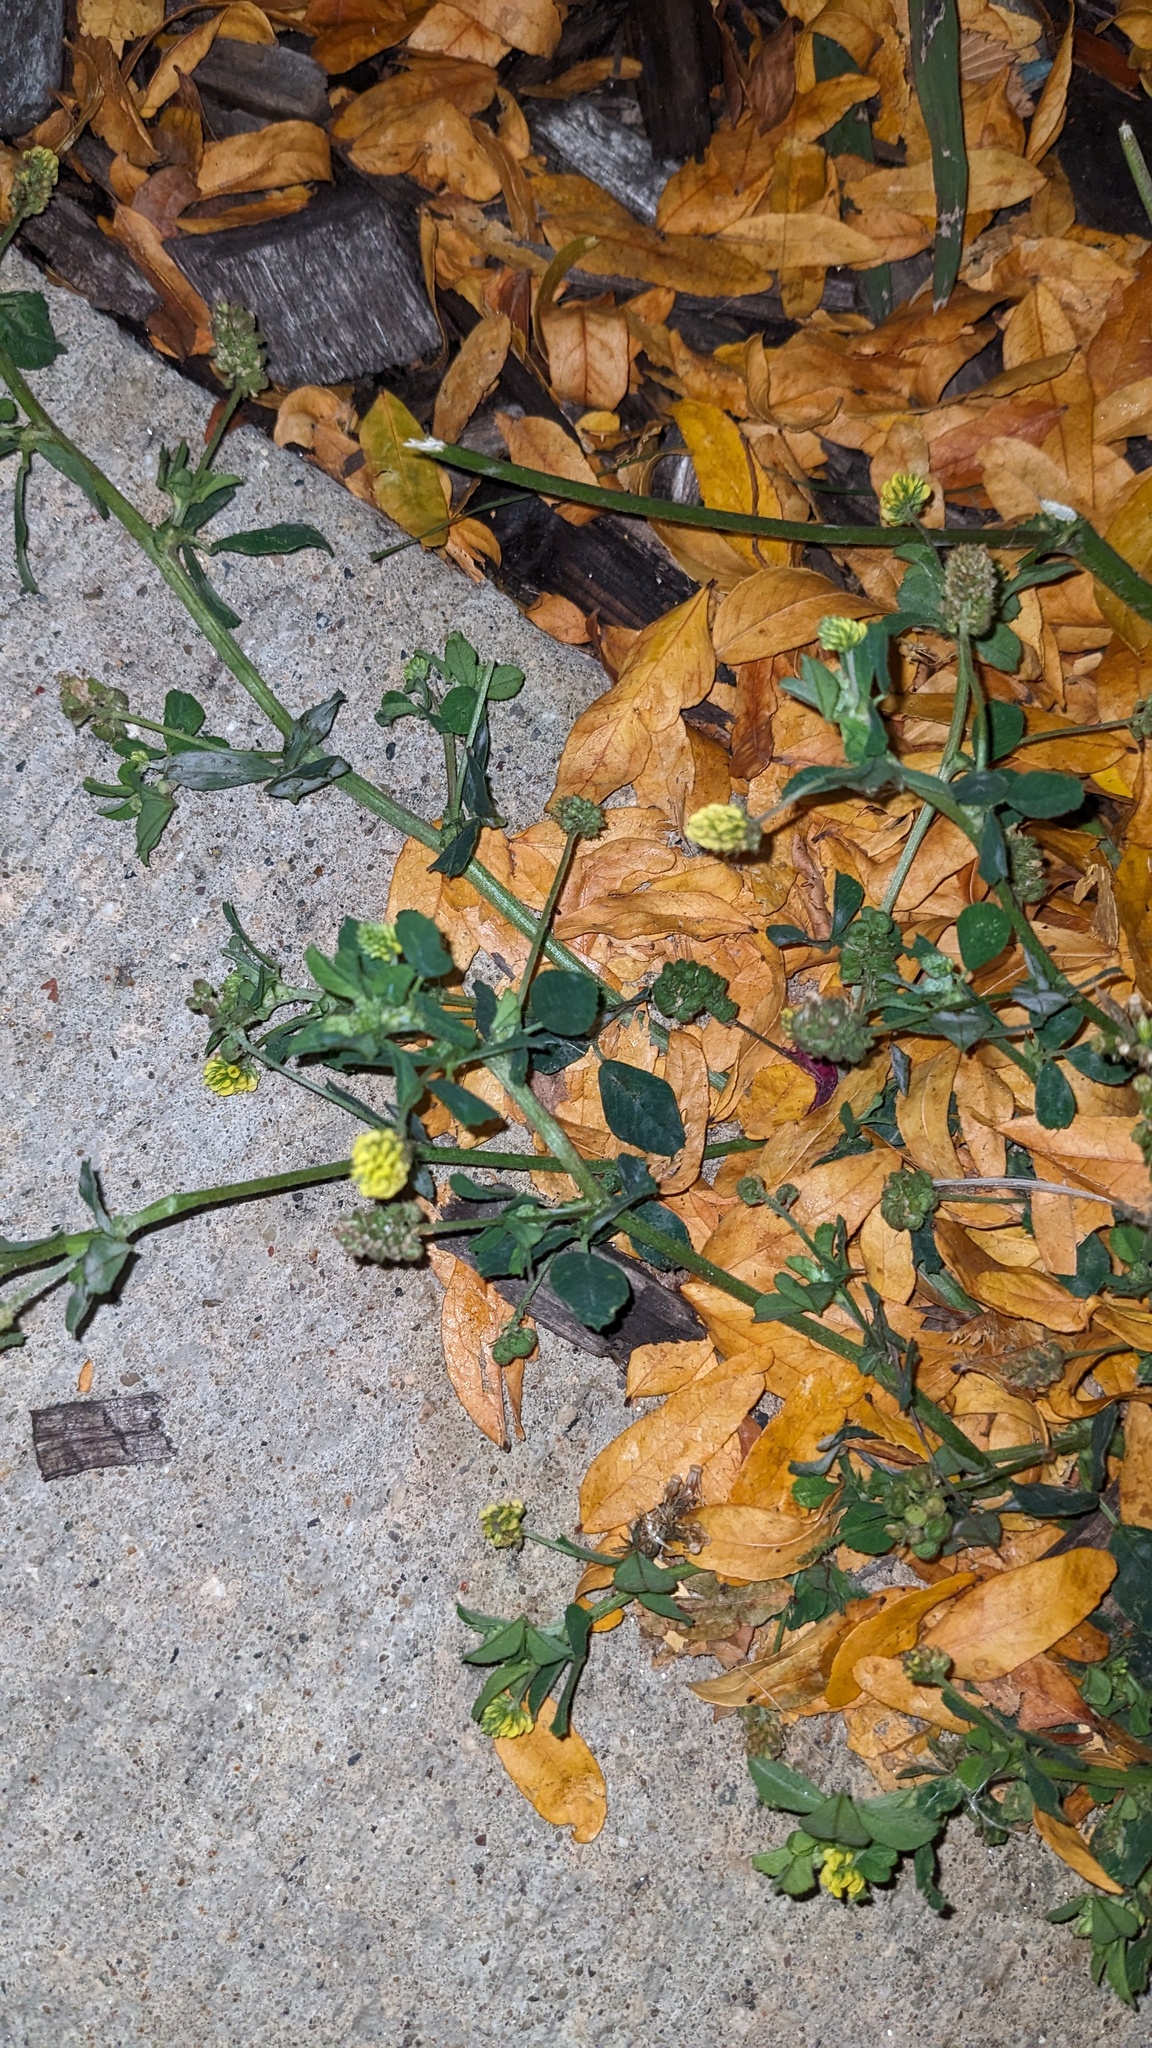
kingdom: Plantae
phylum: Tracheophyta
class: Magnoliopsida
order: Fabales
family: Fabaceae
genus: Medicago
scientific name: Medicago lupulina
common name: Black medick
